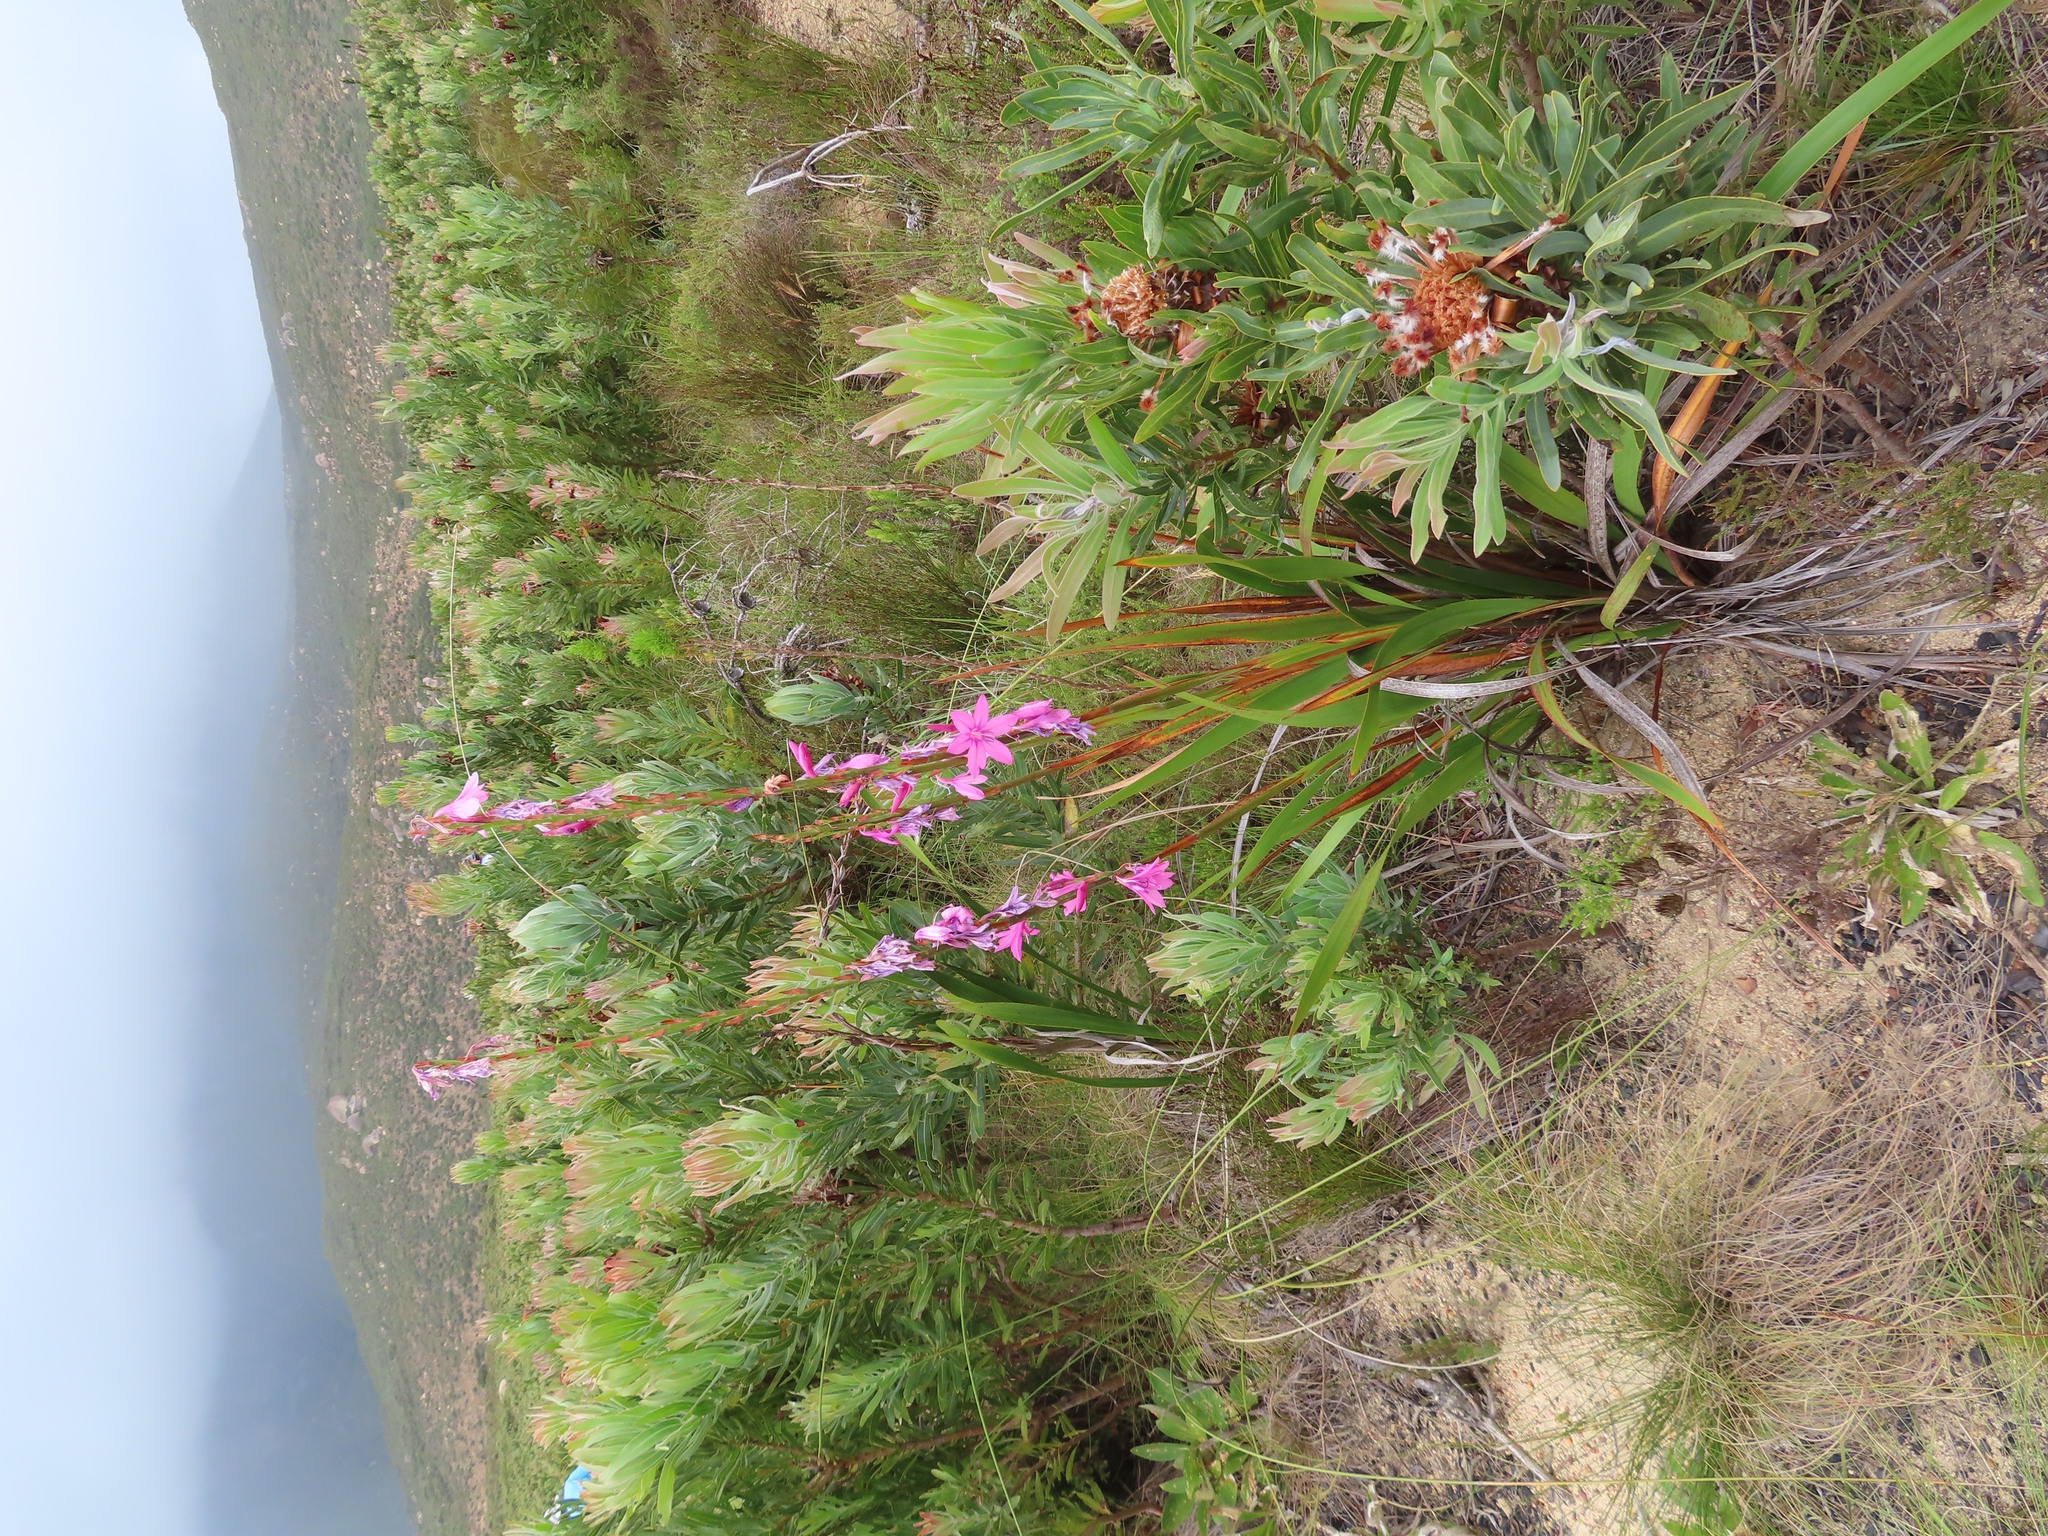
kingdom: Plantae
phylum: Tracheophyta
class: Liliopsida
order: Asparagales
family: Iridaceae
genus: Watsonia
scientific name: Watsonia borbonica
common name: Bugle-lily
